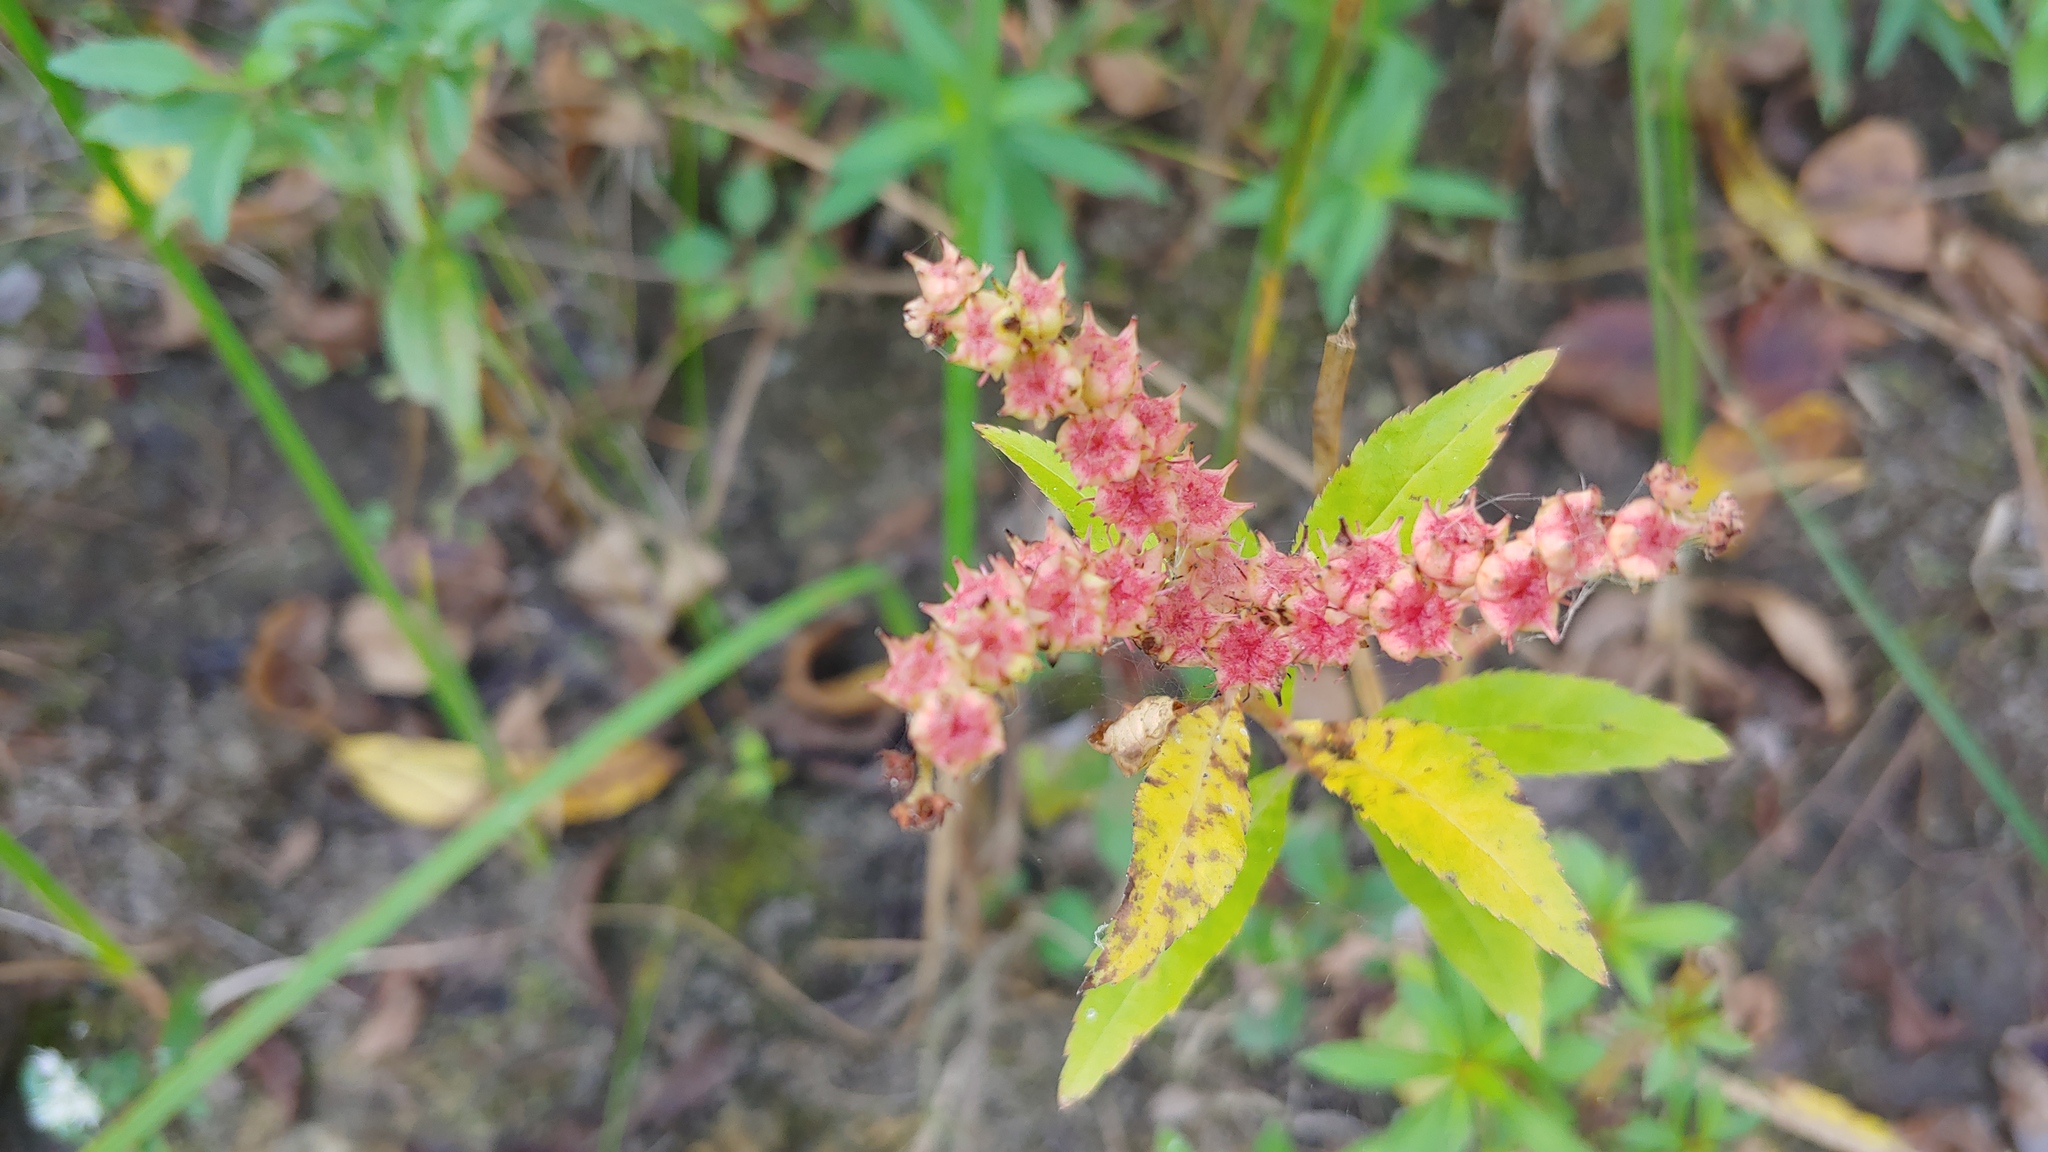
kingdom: Plantae
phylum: Tracheophyta
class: Magnoliopsida
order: Saxifragales
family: Penthoraceae
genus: Penthorum
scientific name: Penthorum sedoides
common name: Ditch stonecrop
